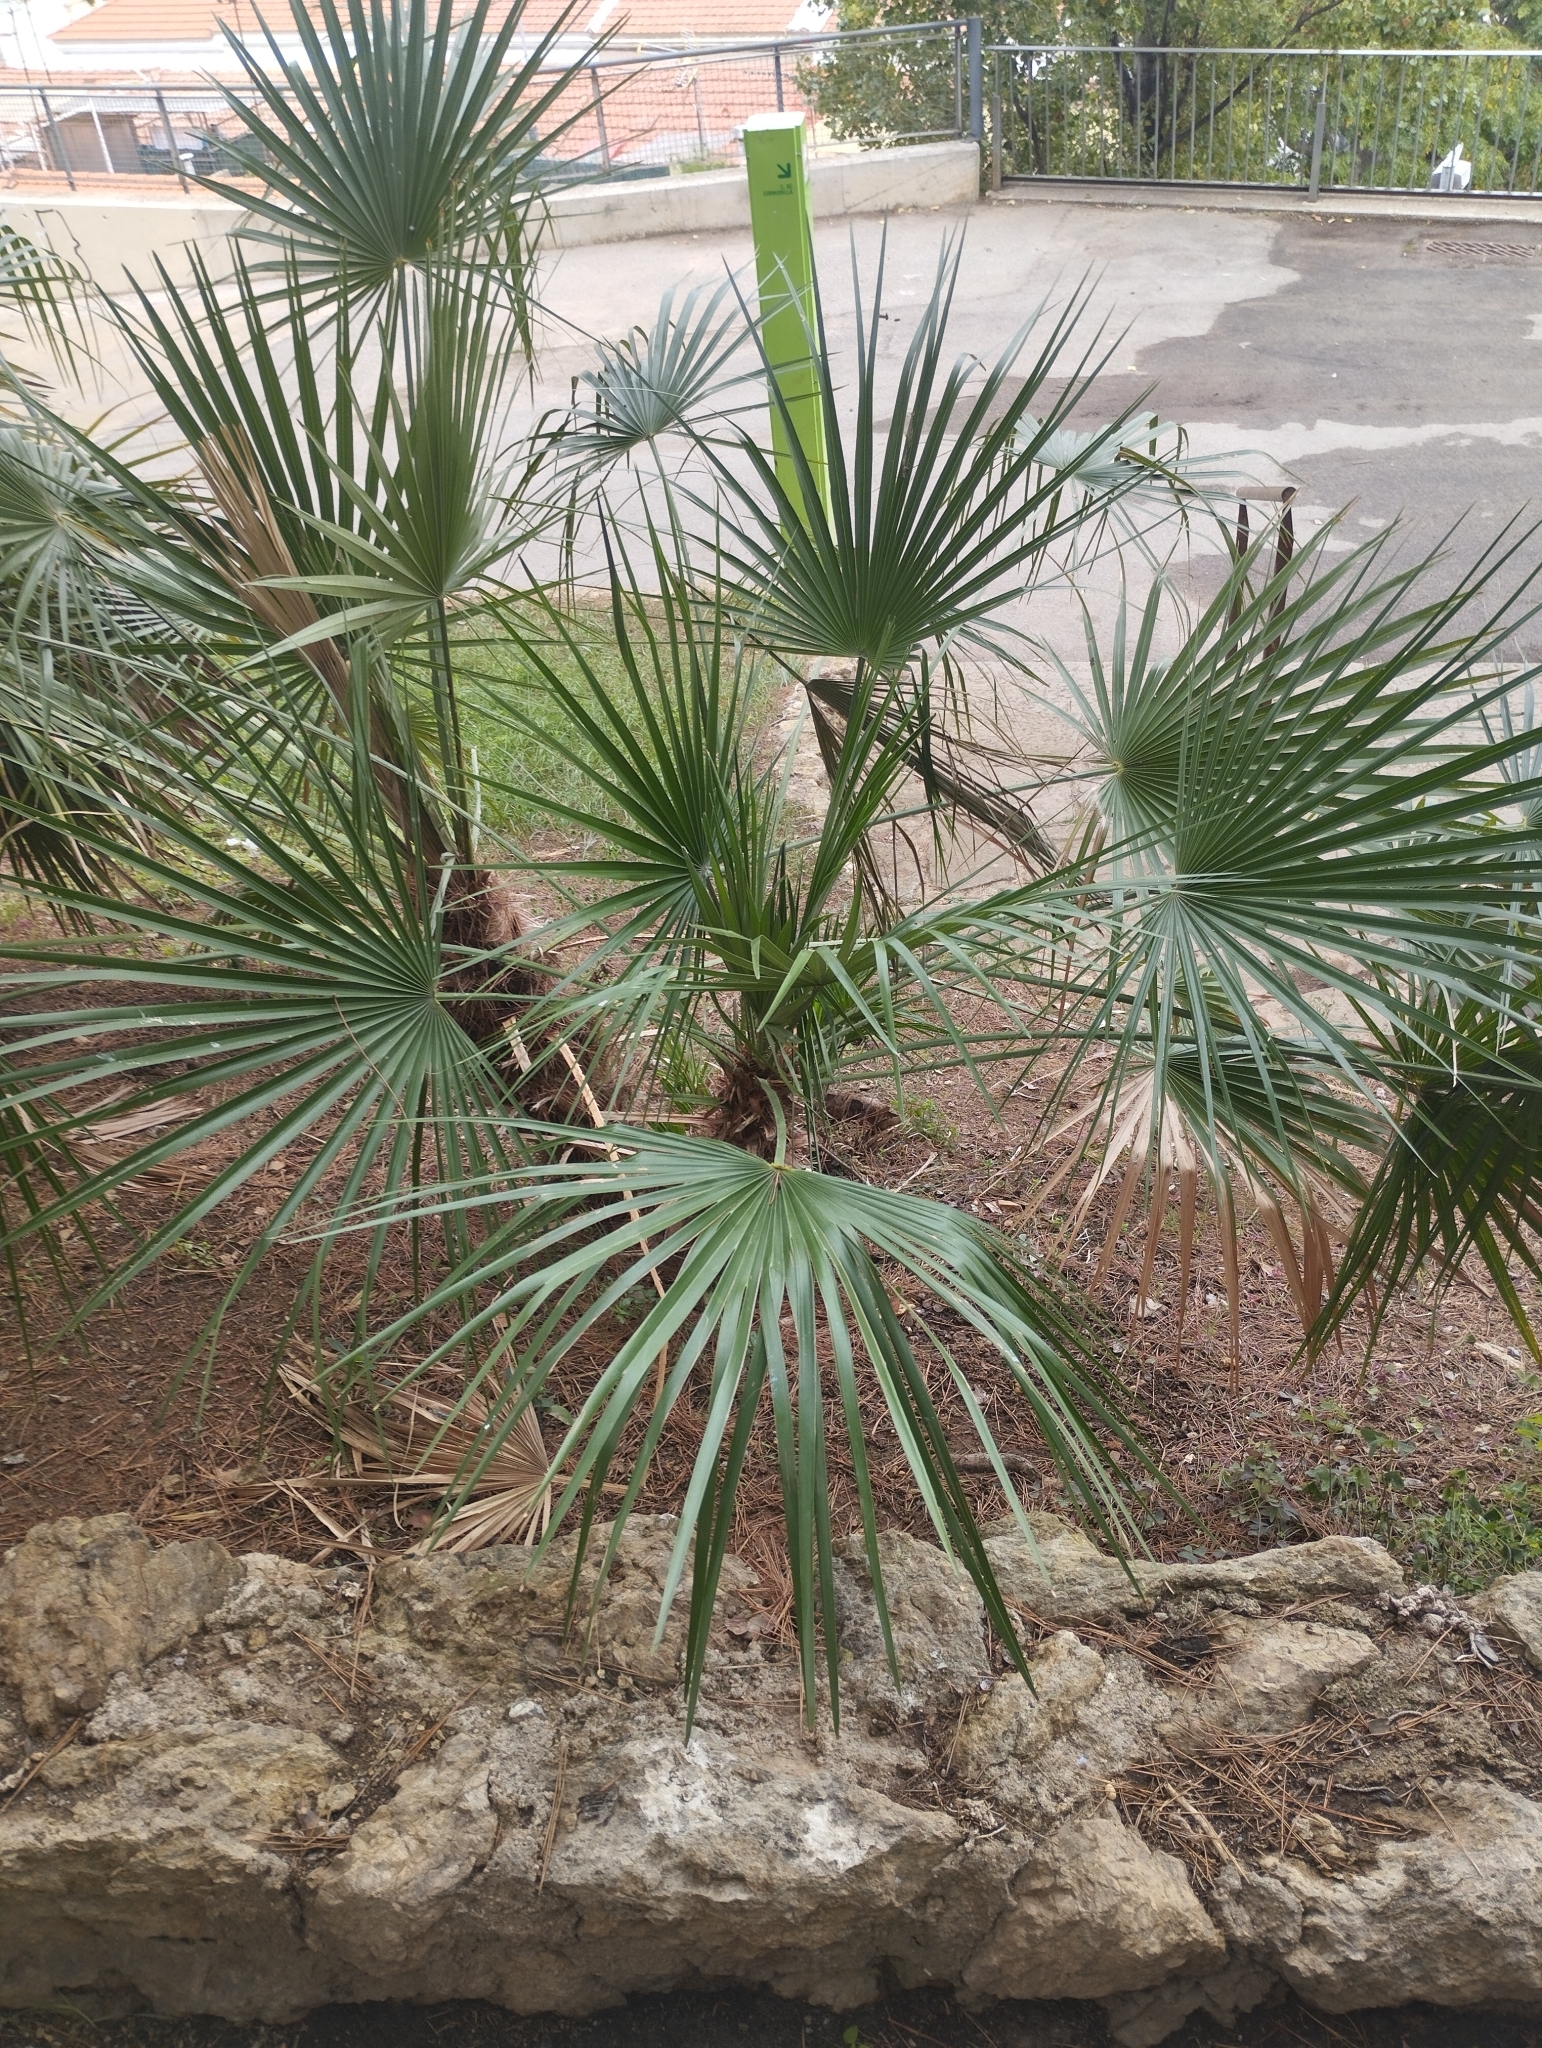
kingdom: Plantae
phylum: Tracheophyta
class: Liliopsida
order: Arecales
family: Arecaceae
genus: Chamaerops
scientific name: Chamaerops humilis
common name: Dwarf fan palm
